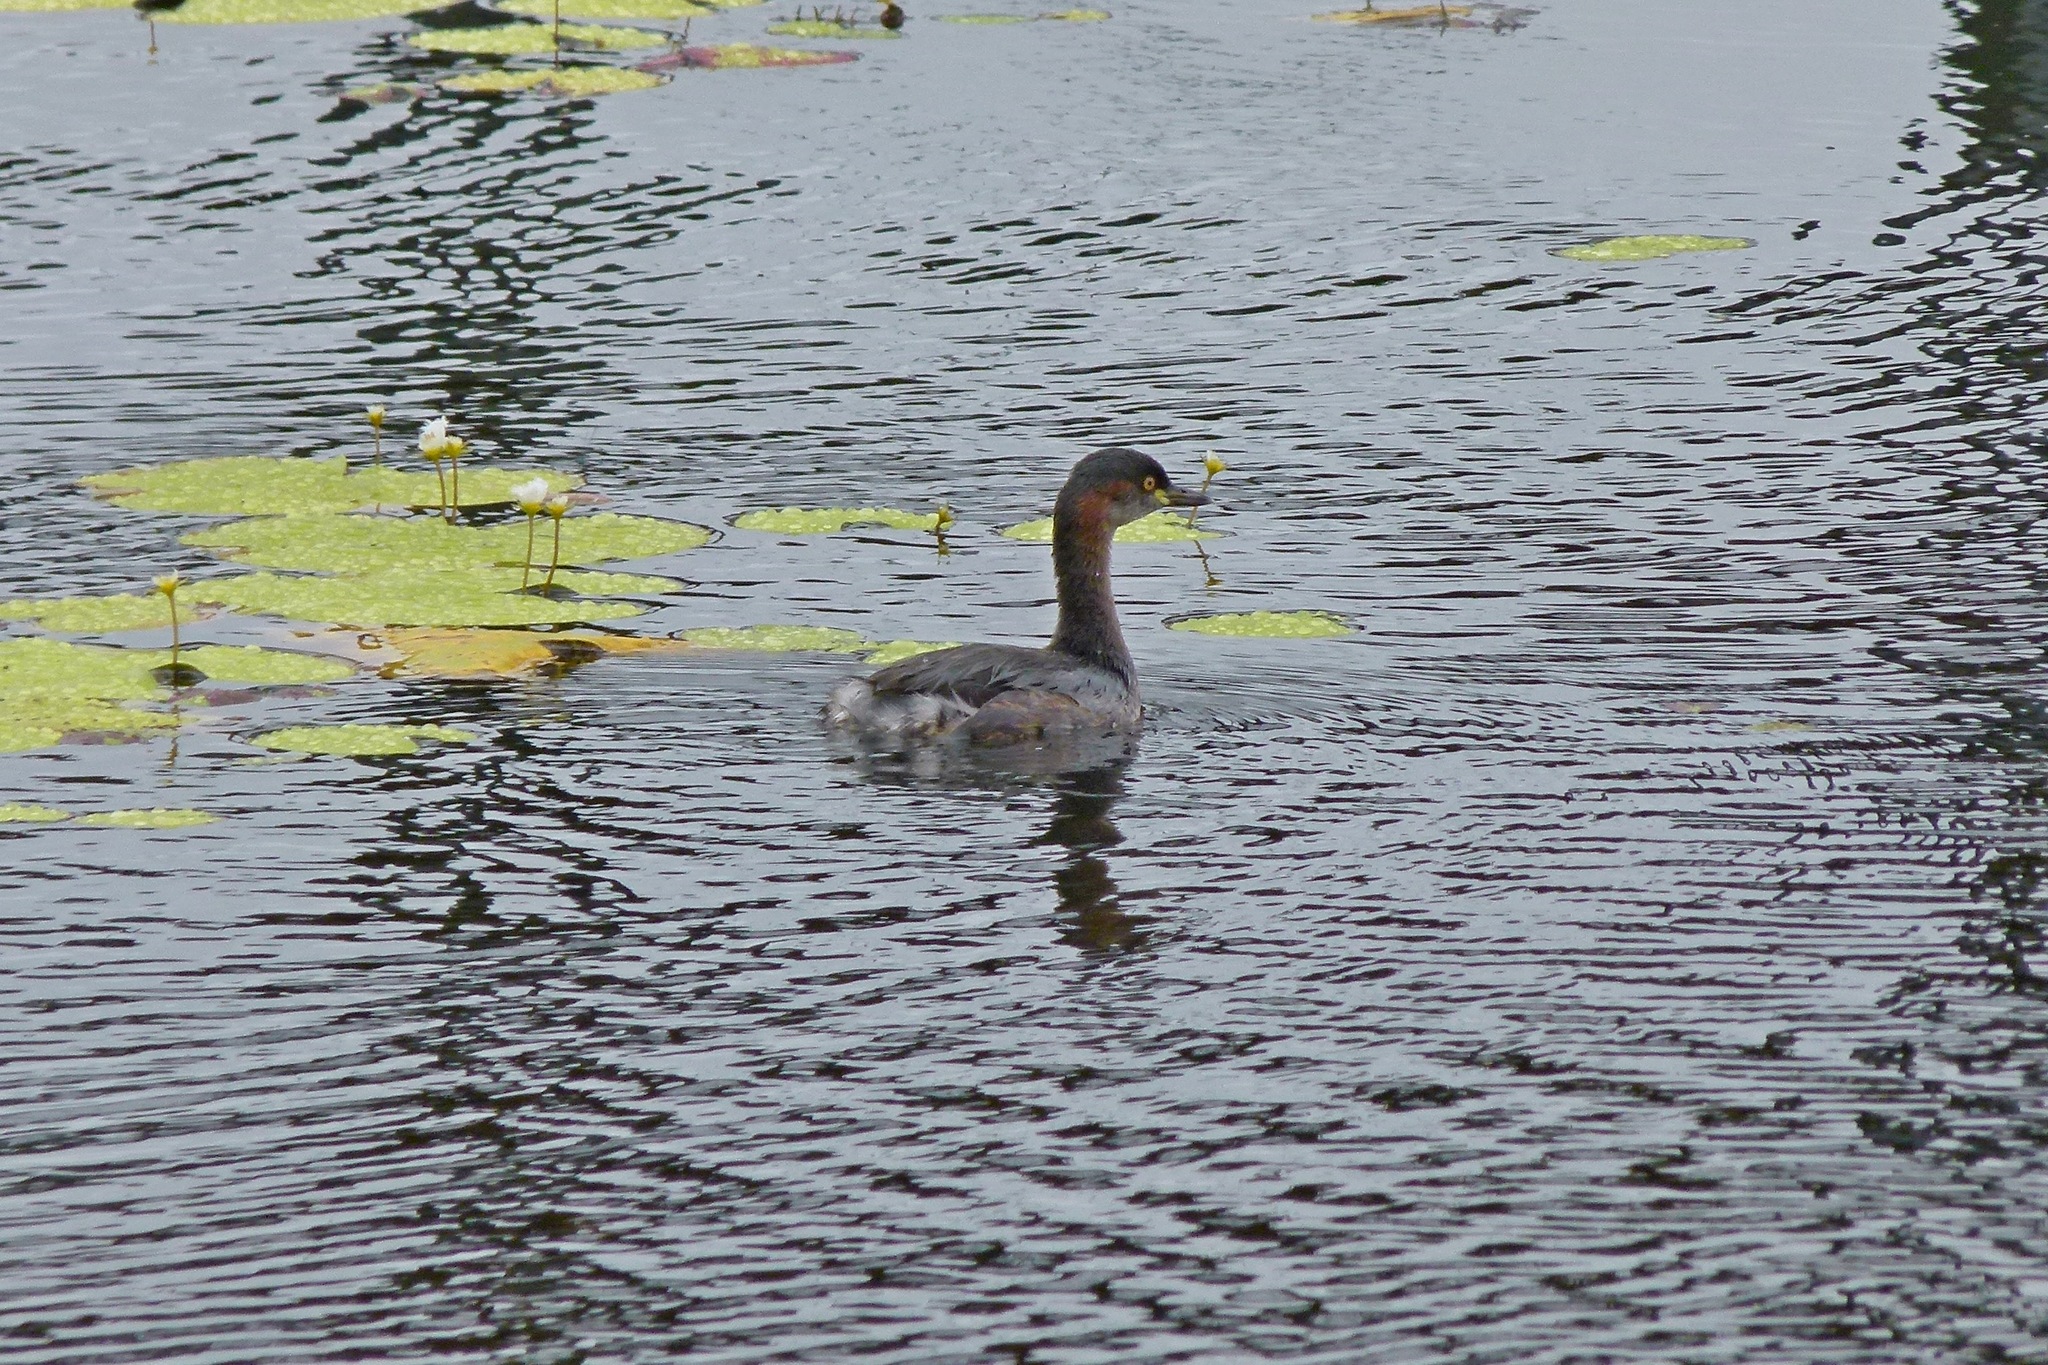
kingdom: Animalia
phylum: Chordata
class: Aves
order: Podicipediformes
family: Podicipedidae
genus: Tachybaptus
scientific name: Tachybaptus novaehollandiae
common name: Australasian grebe
